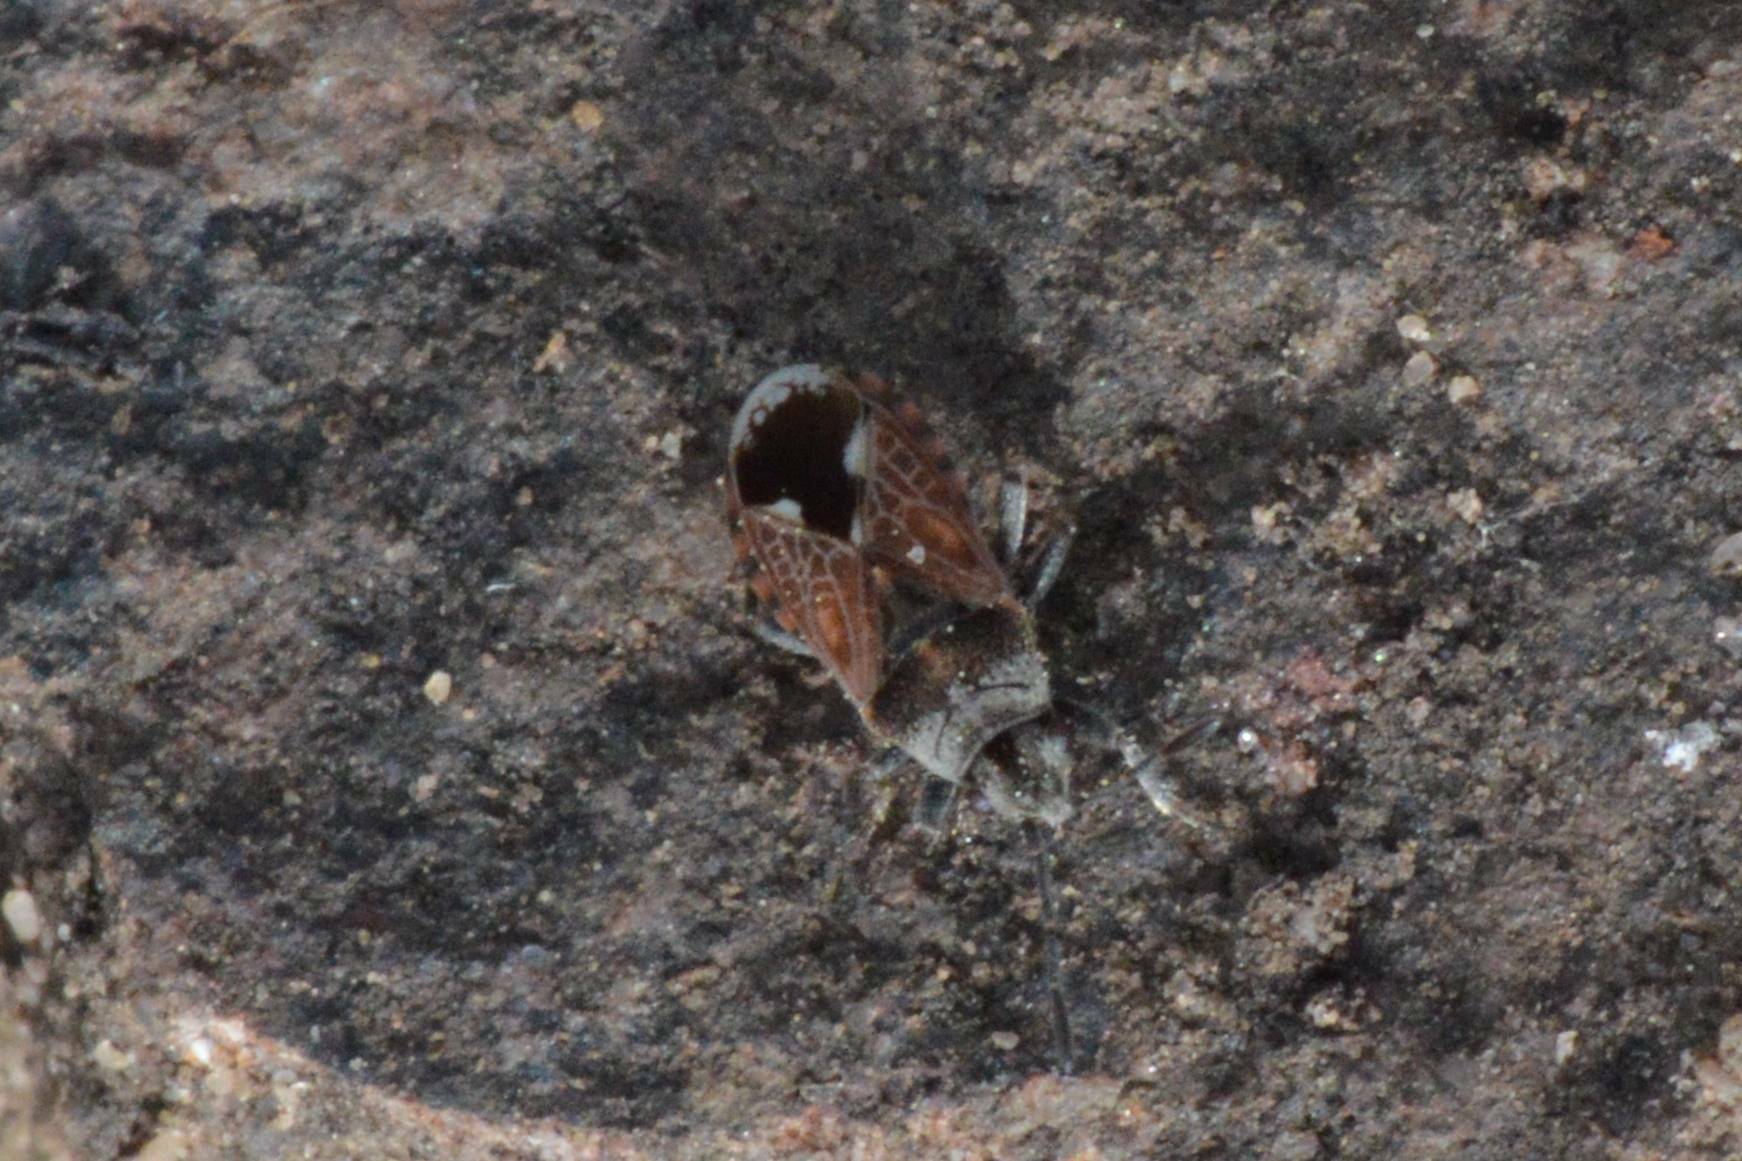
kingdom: Animalia
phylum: Arthropoda
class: Insecta
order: Hemiptera
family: Lygaeidae
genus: Lygaeosoma
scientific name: Lygaeosoma sardeum
